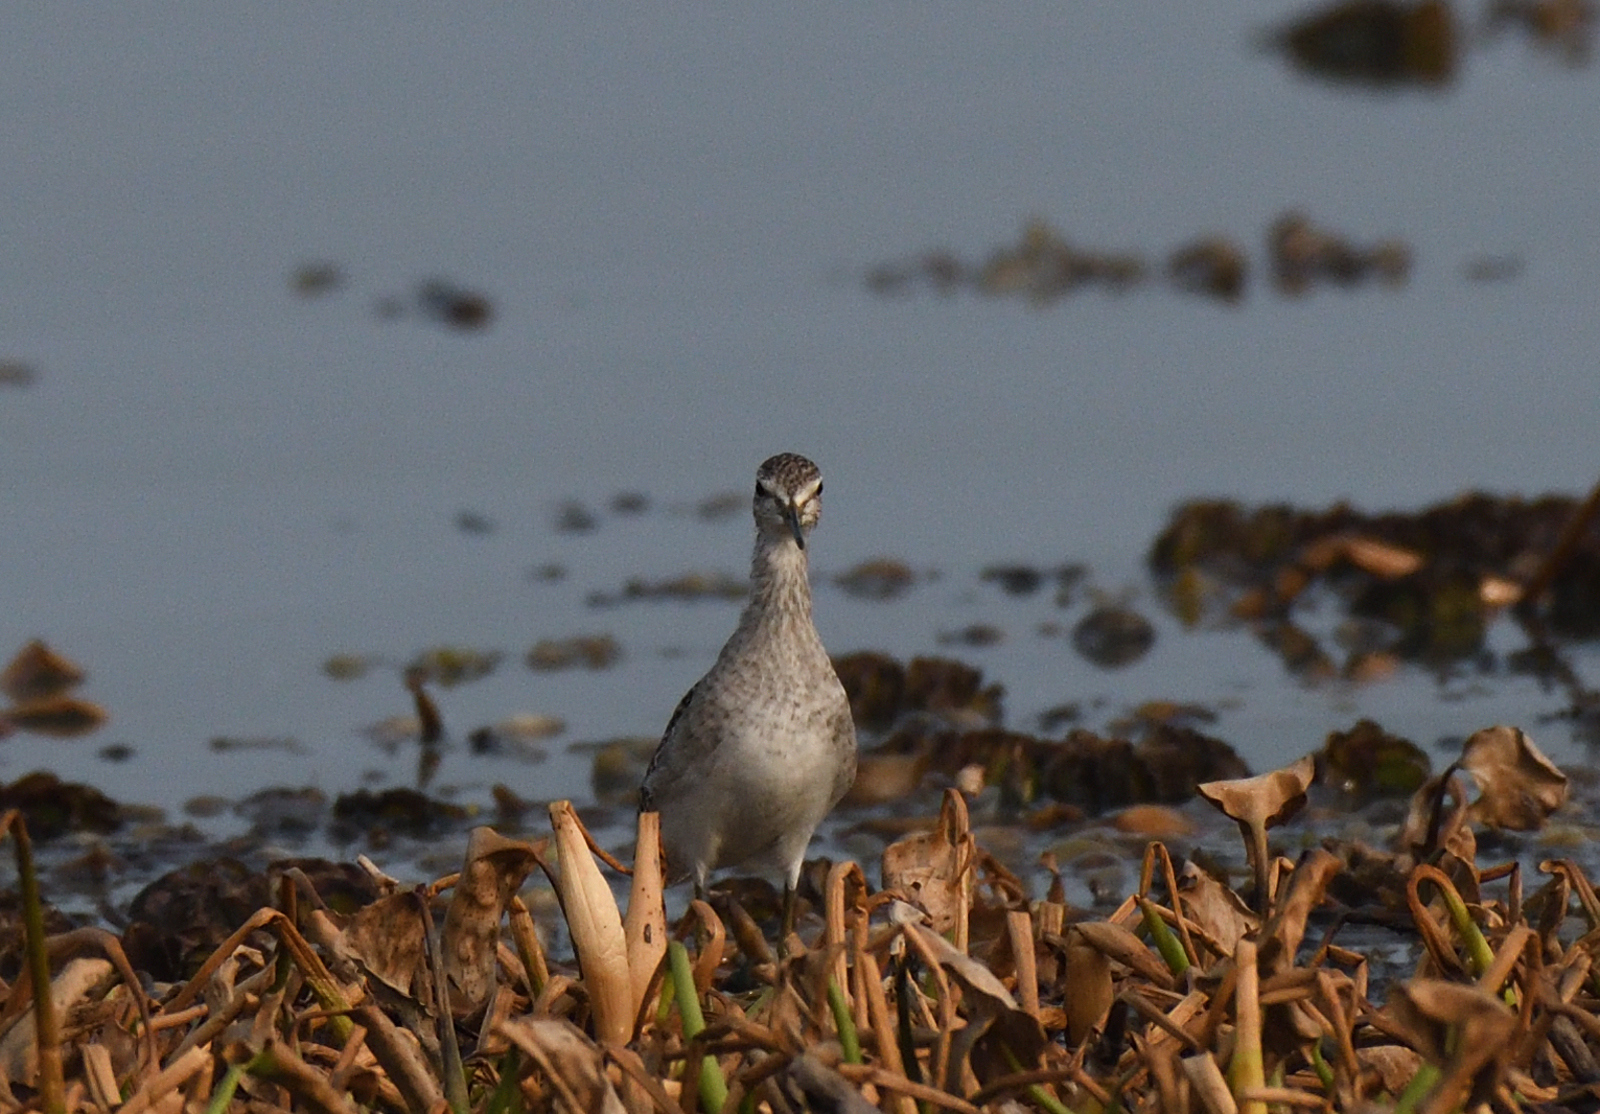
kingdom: Animalia
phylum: Chordata
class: Aves
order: Charadriiformes
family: Scolopacidae
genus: Tringa
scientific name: Tringa glareola
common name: Wood sandpiper
